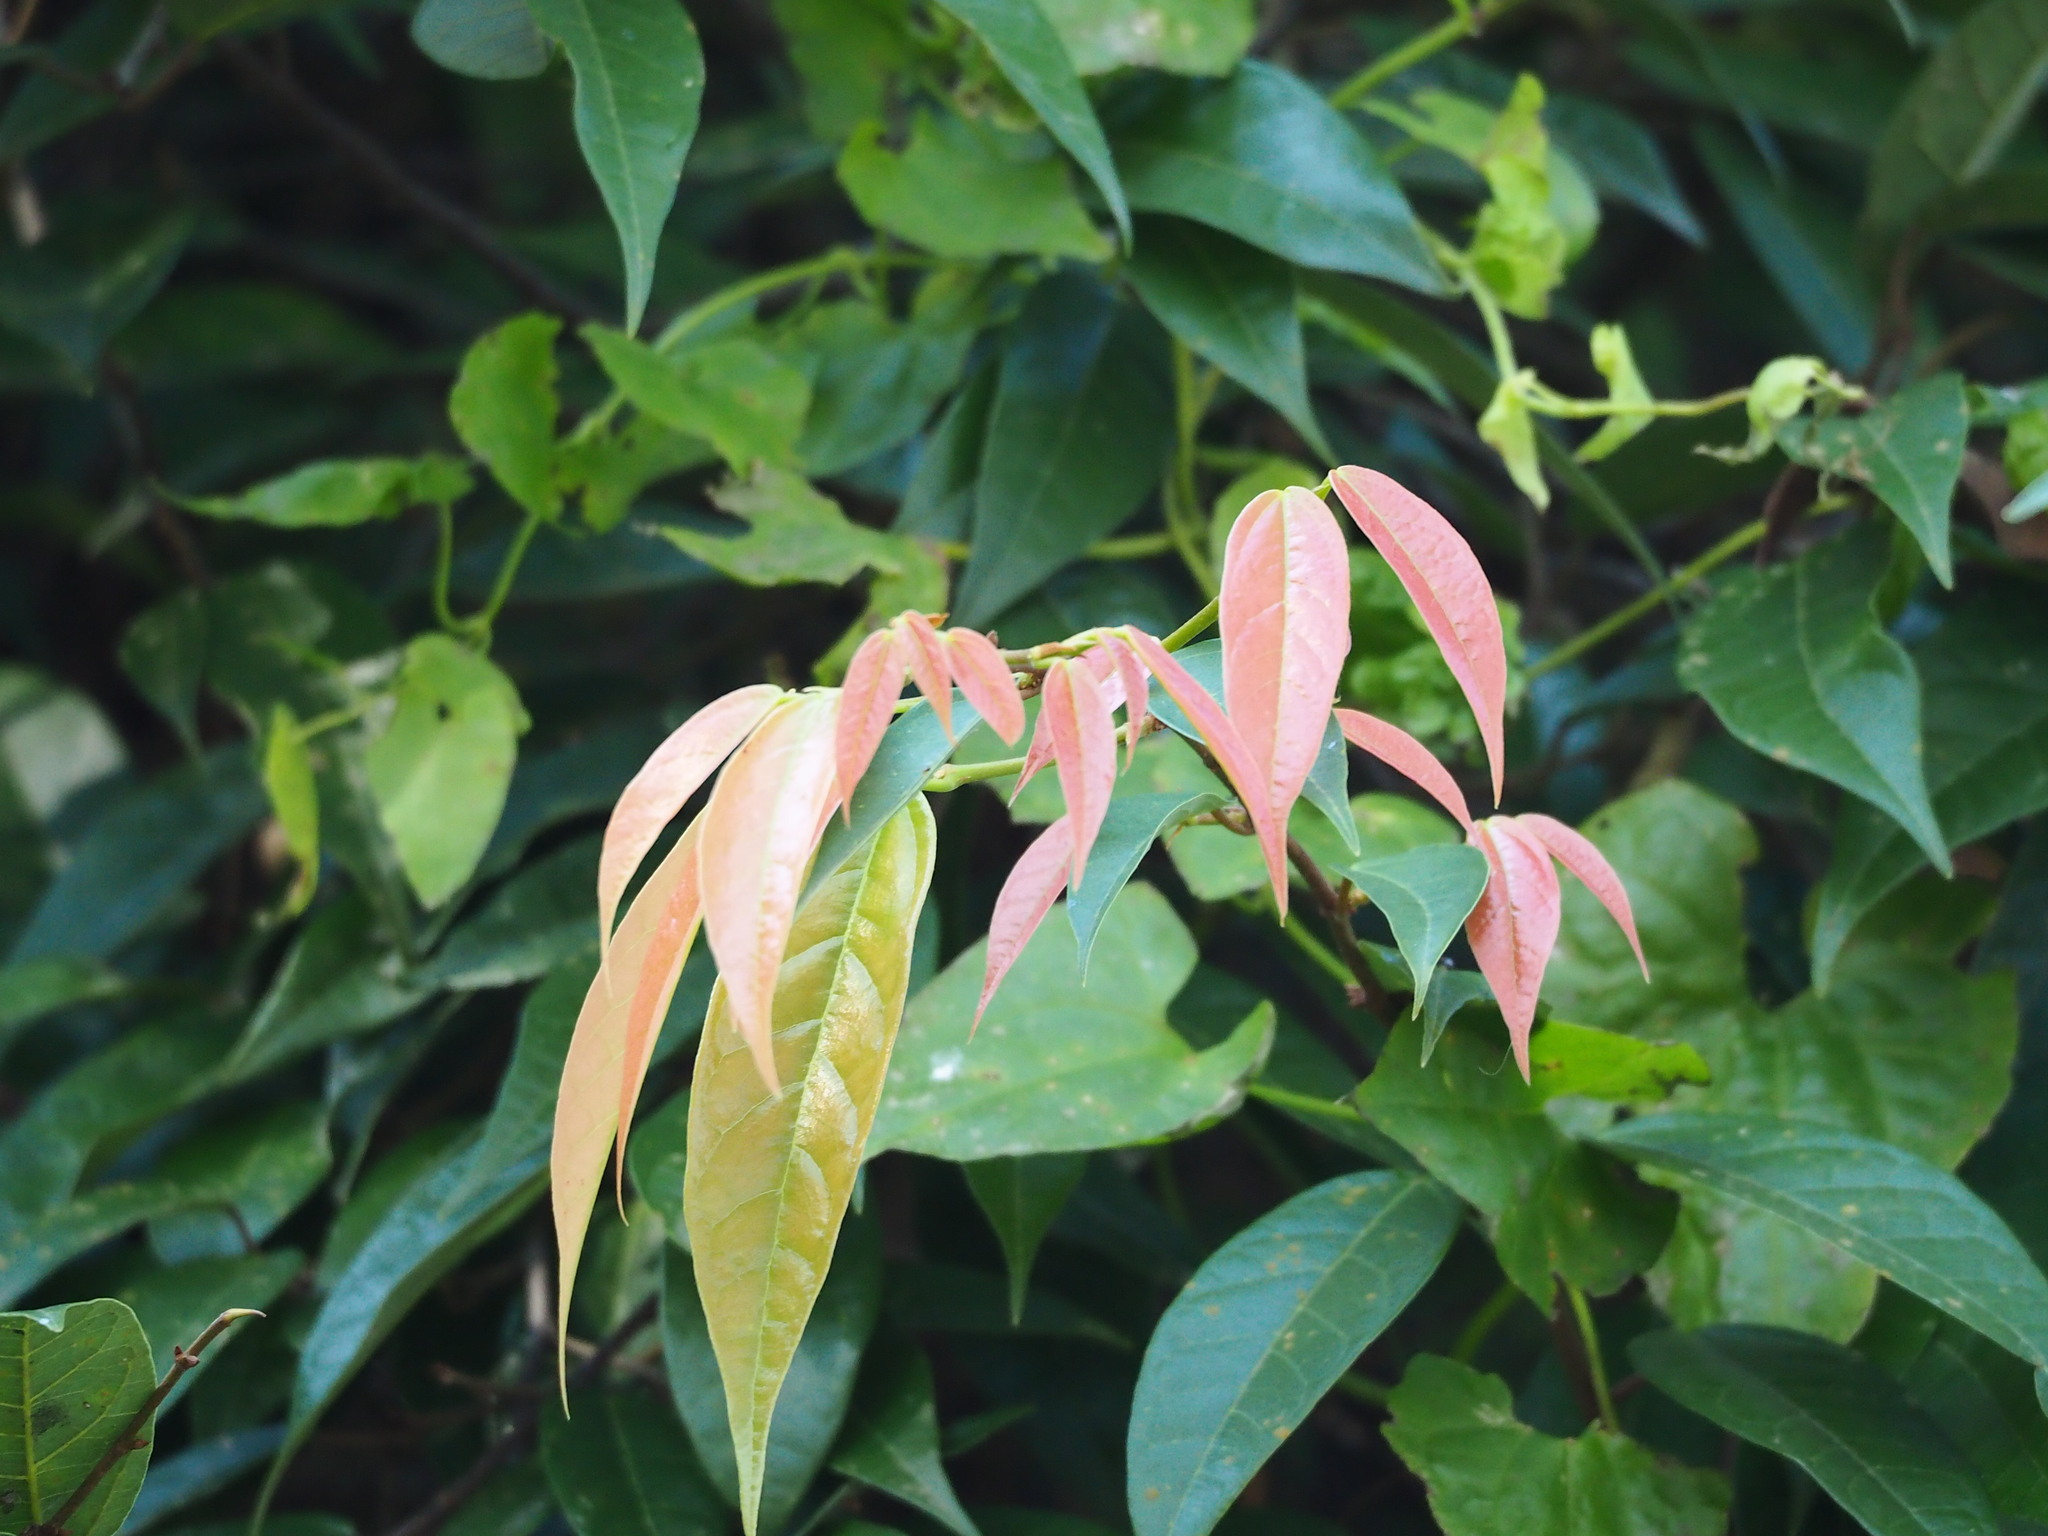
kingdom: Plantae
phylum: Tracheophyta
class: Magnoliopsida
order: Rosales
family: Moraceae
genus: Ficus
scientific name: Ficus sarmentosa
